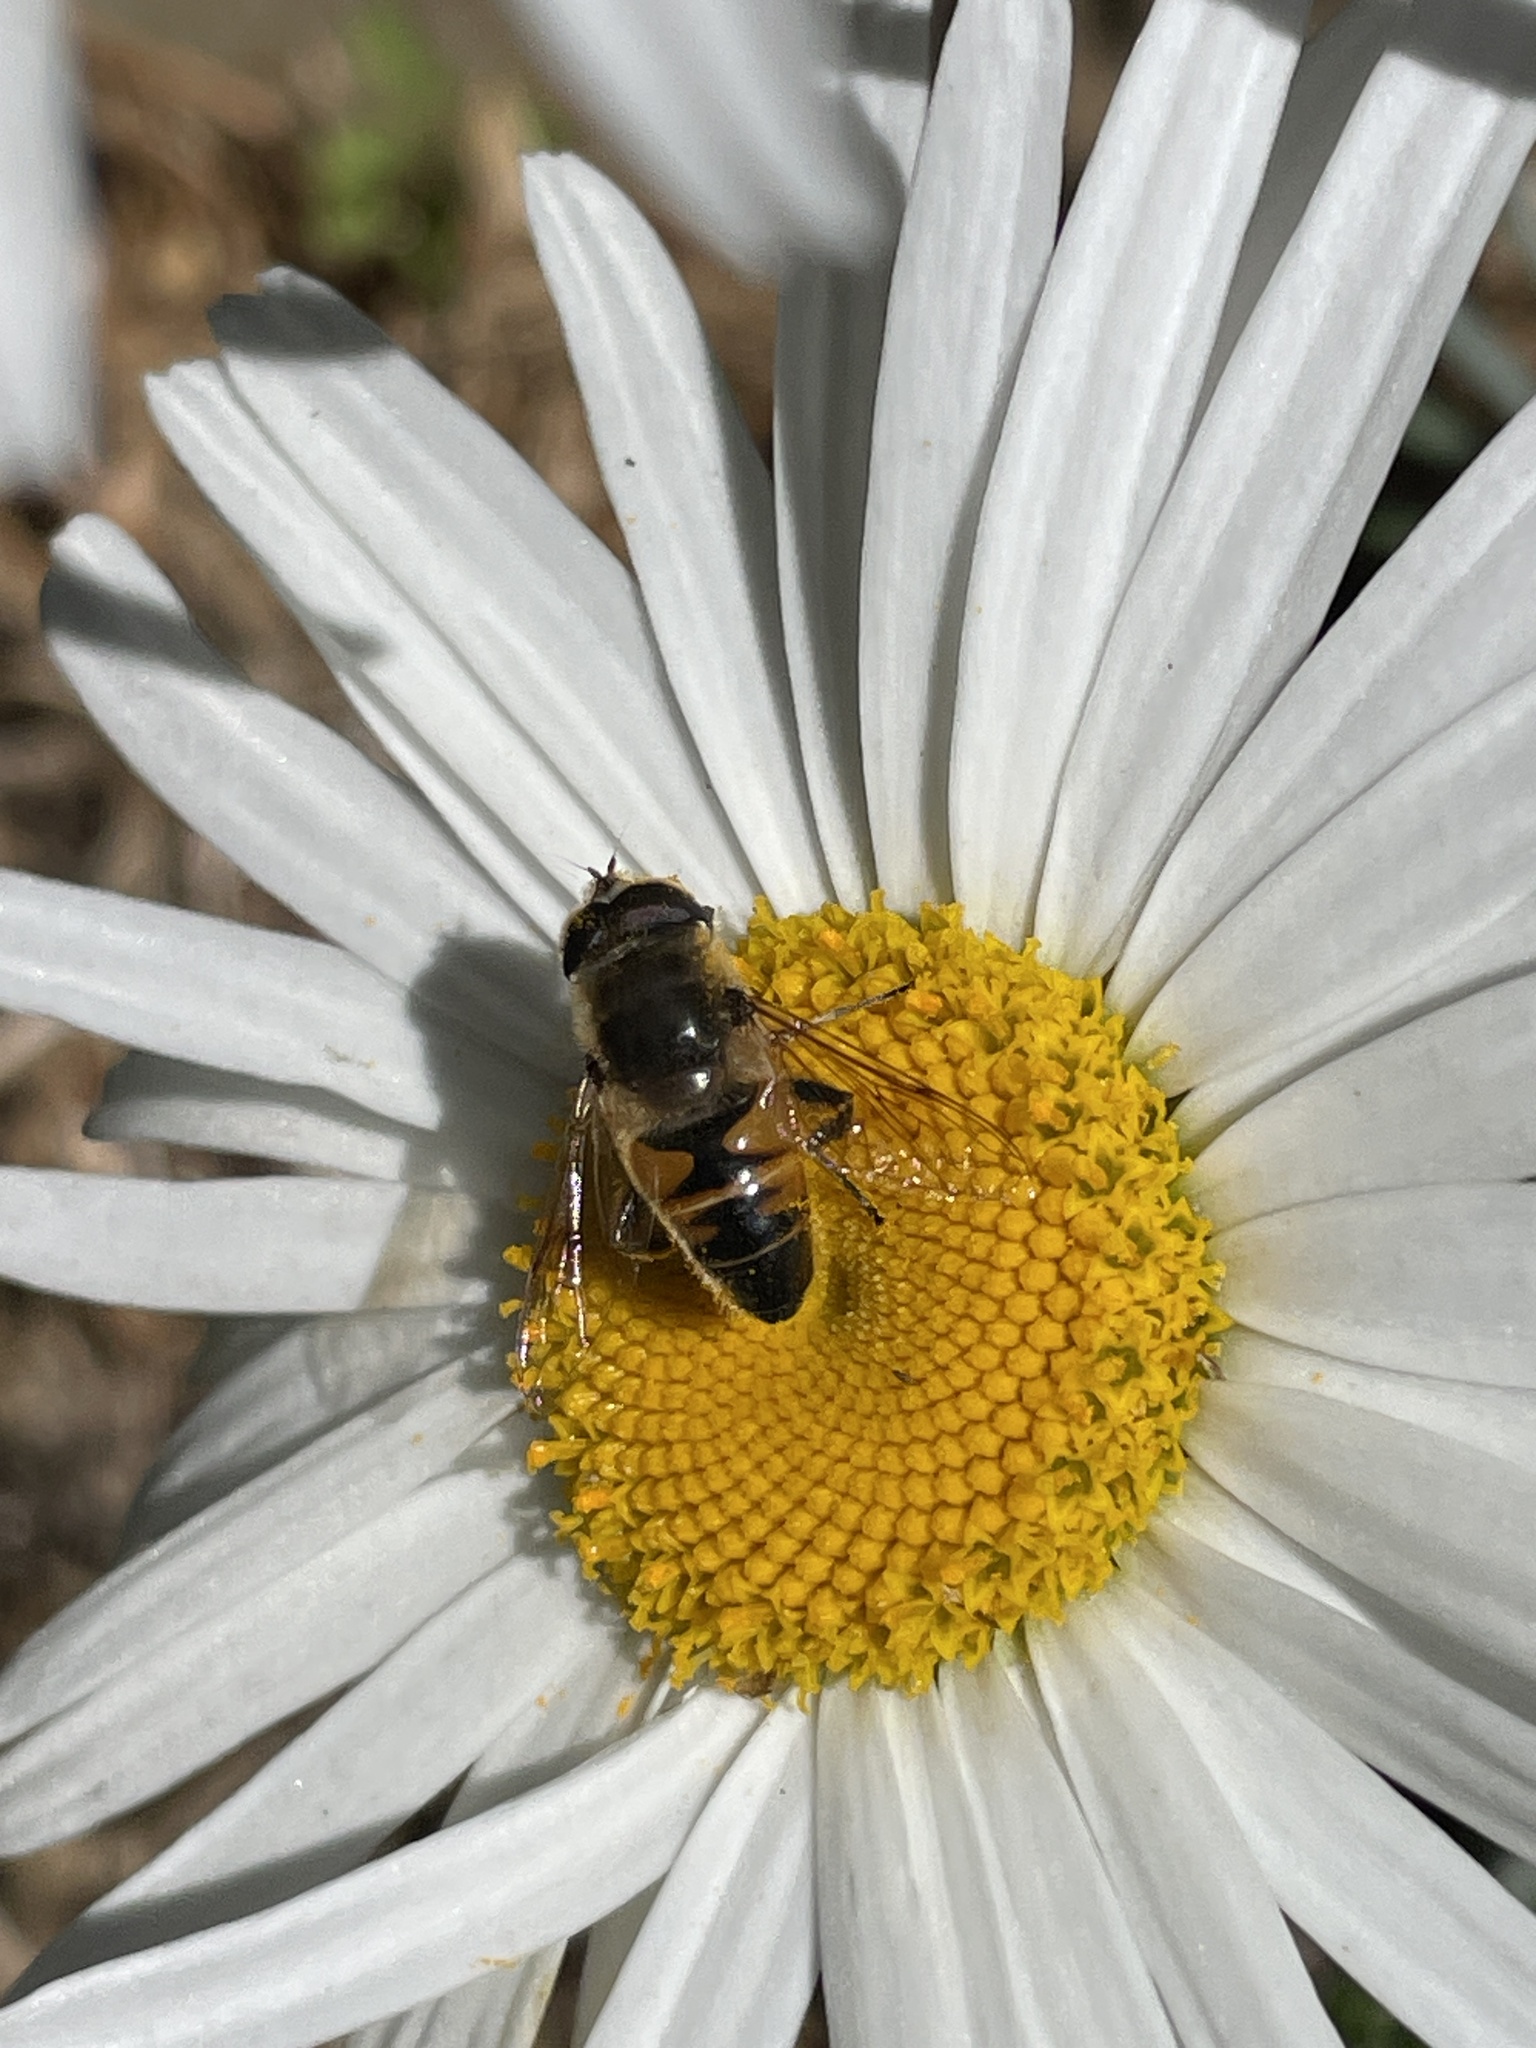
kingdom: Animalia
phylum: Arthropoda
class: Insecta
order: Diptera
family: Syrphidae
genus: Eristalis
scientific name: Eristalis tenax
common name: Drone fly
